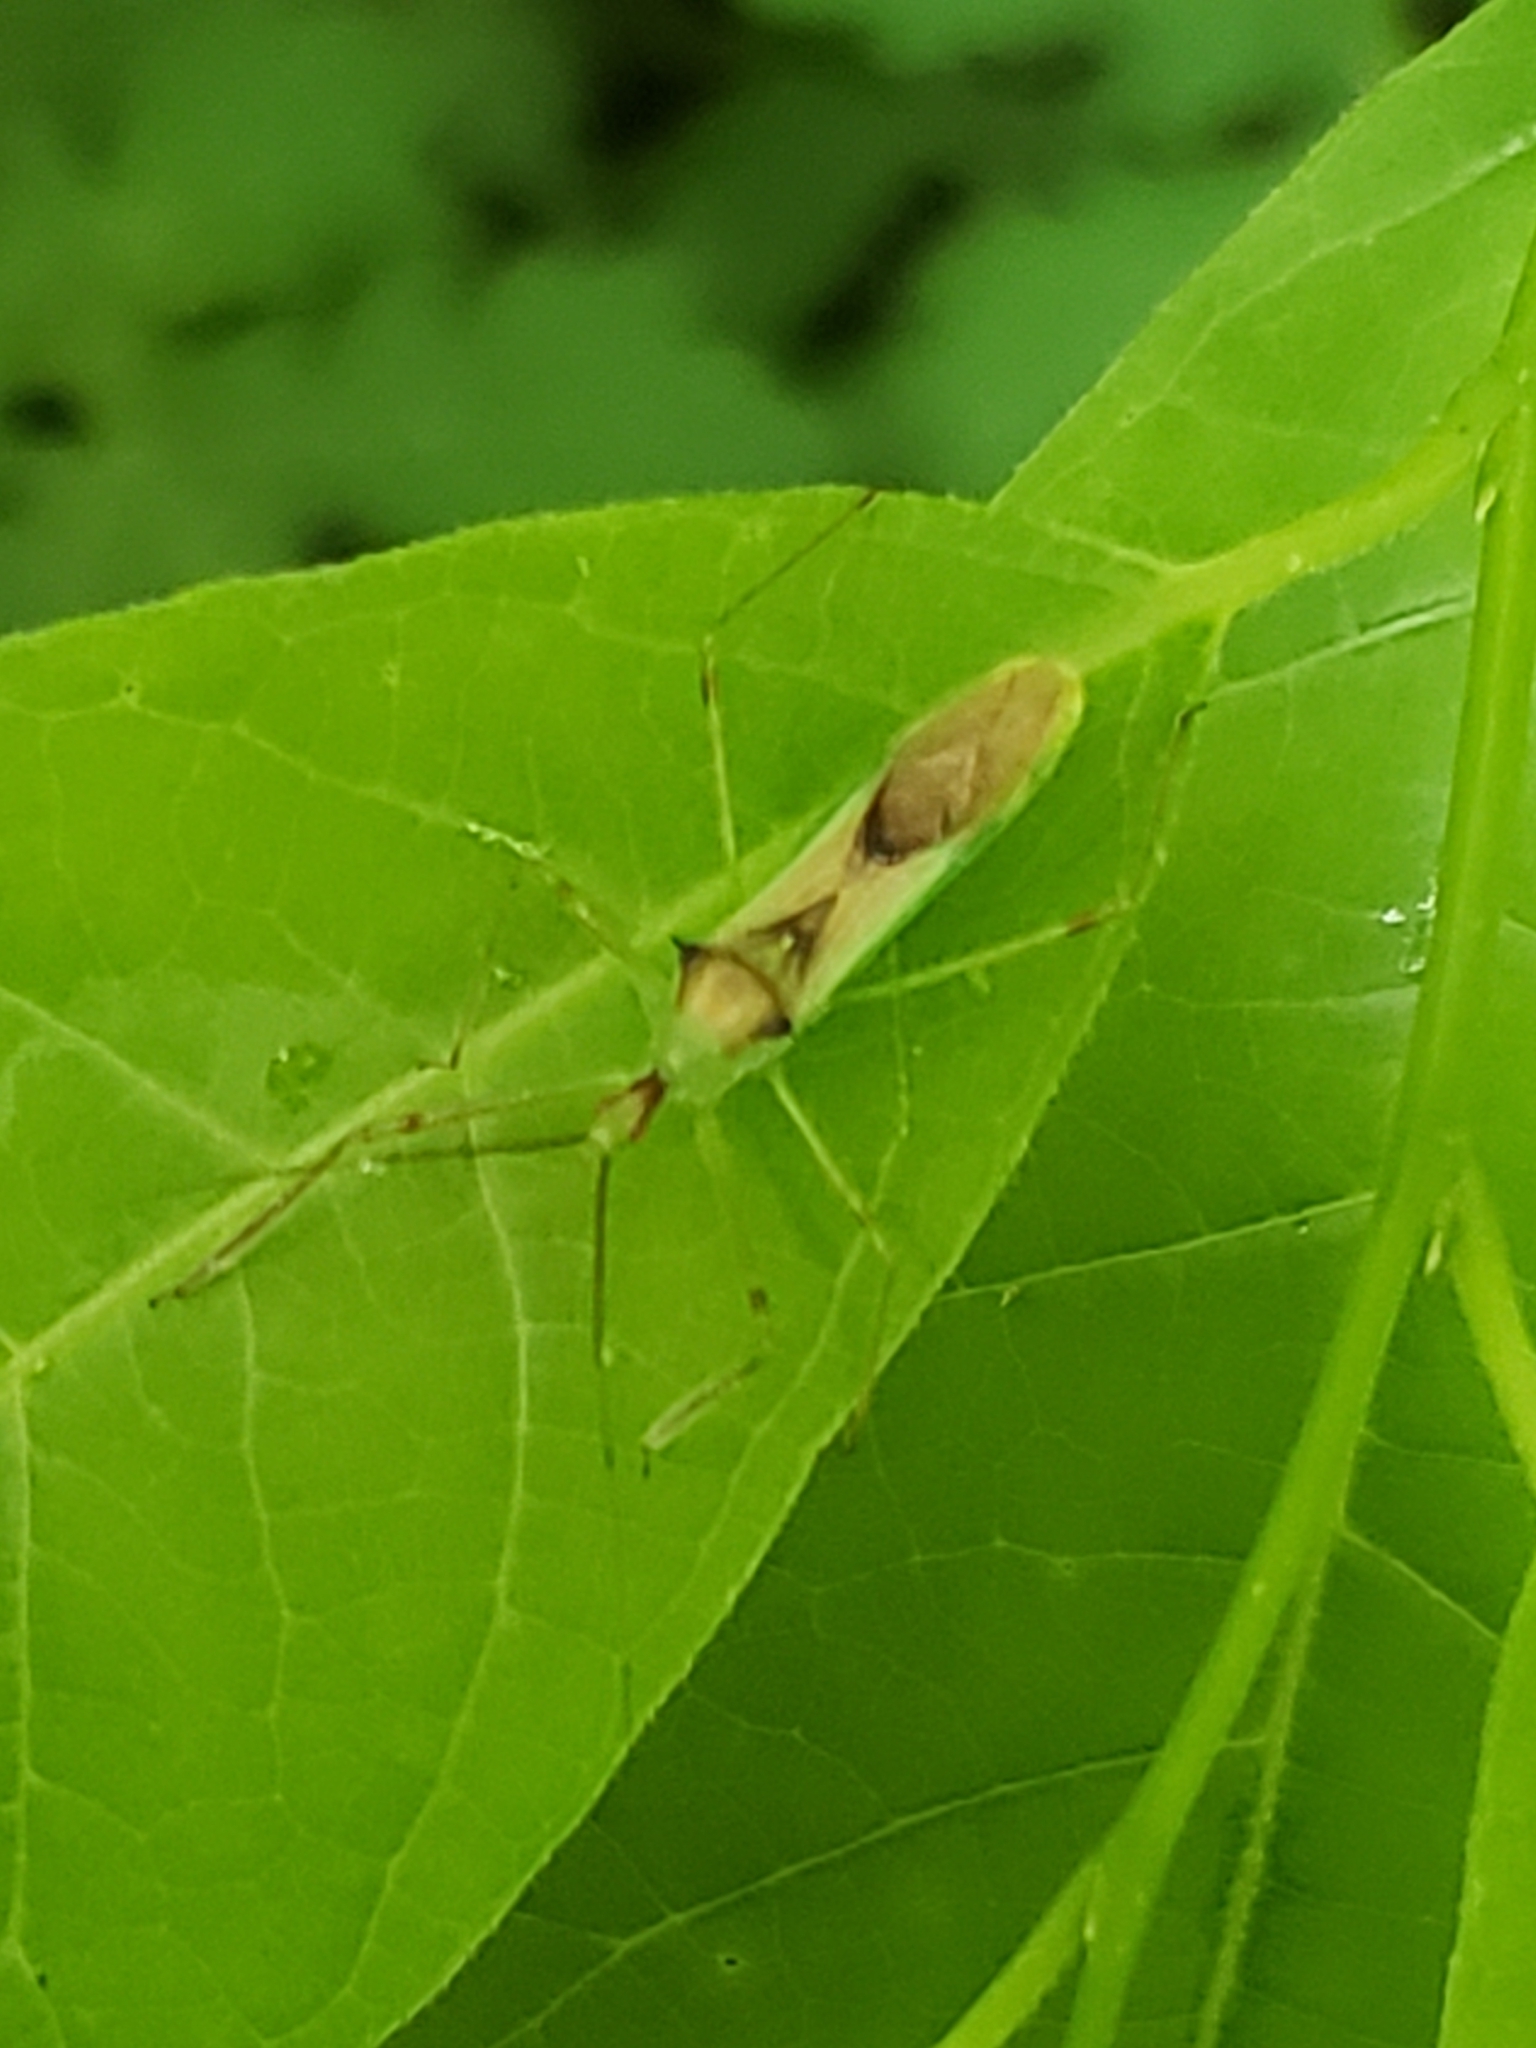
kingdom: Animalia
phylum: Arthropoda
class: Insecta
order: Hemiptera
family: Reduviidae
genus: Zelus
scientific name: Zelus luridus
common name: Pale green assassin bug
